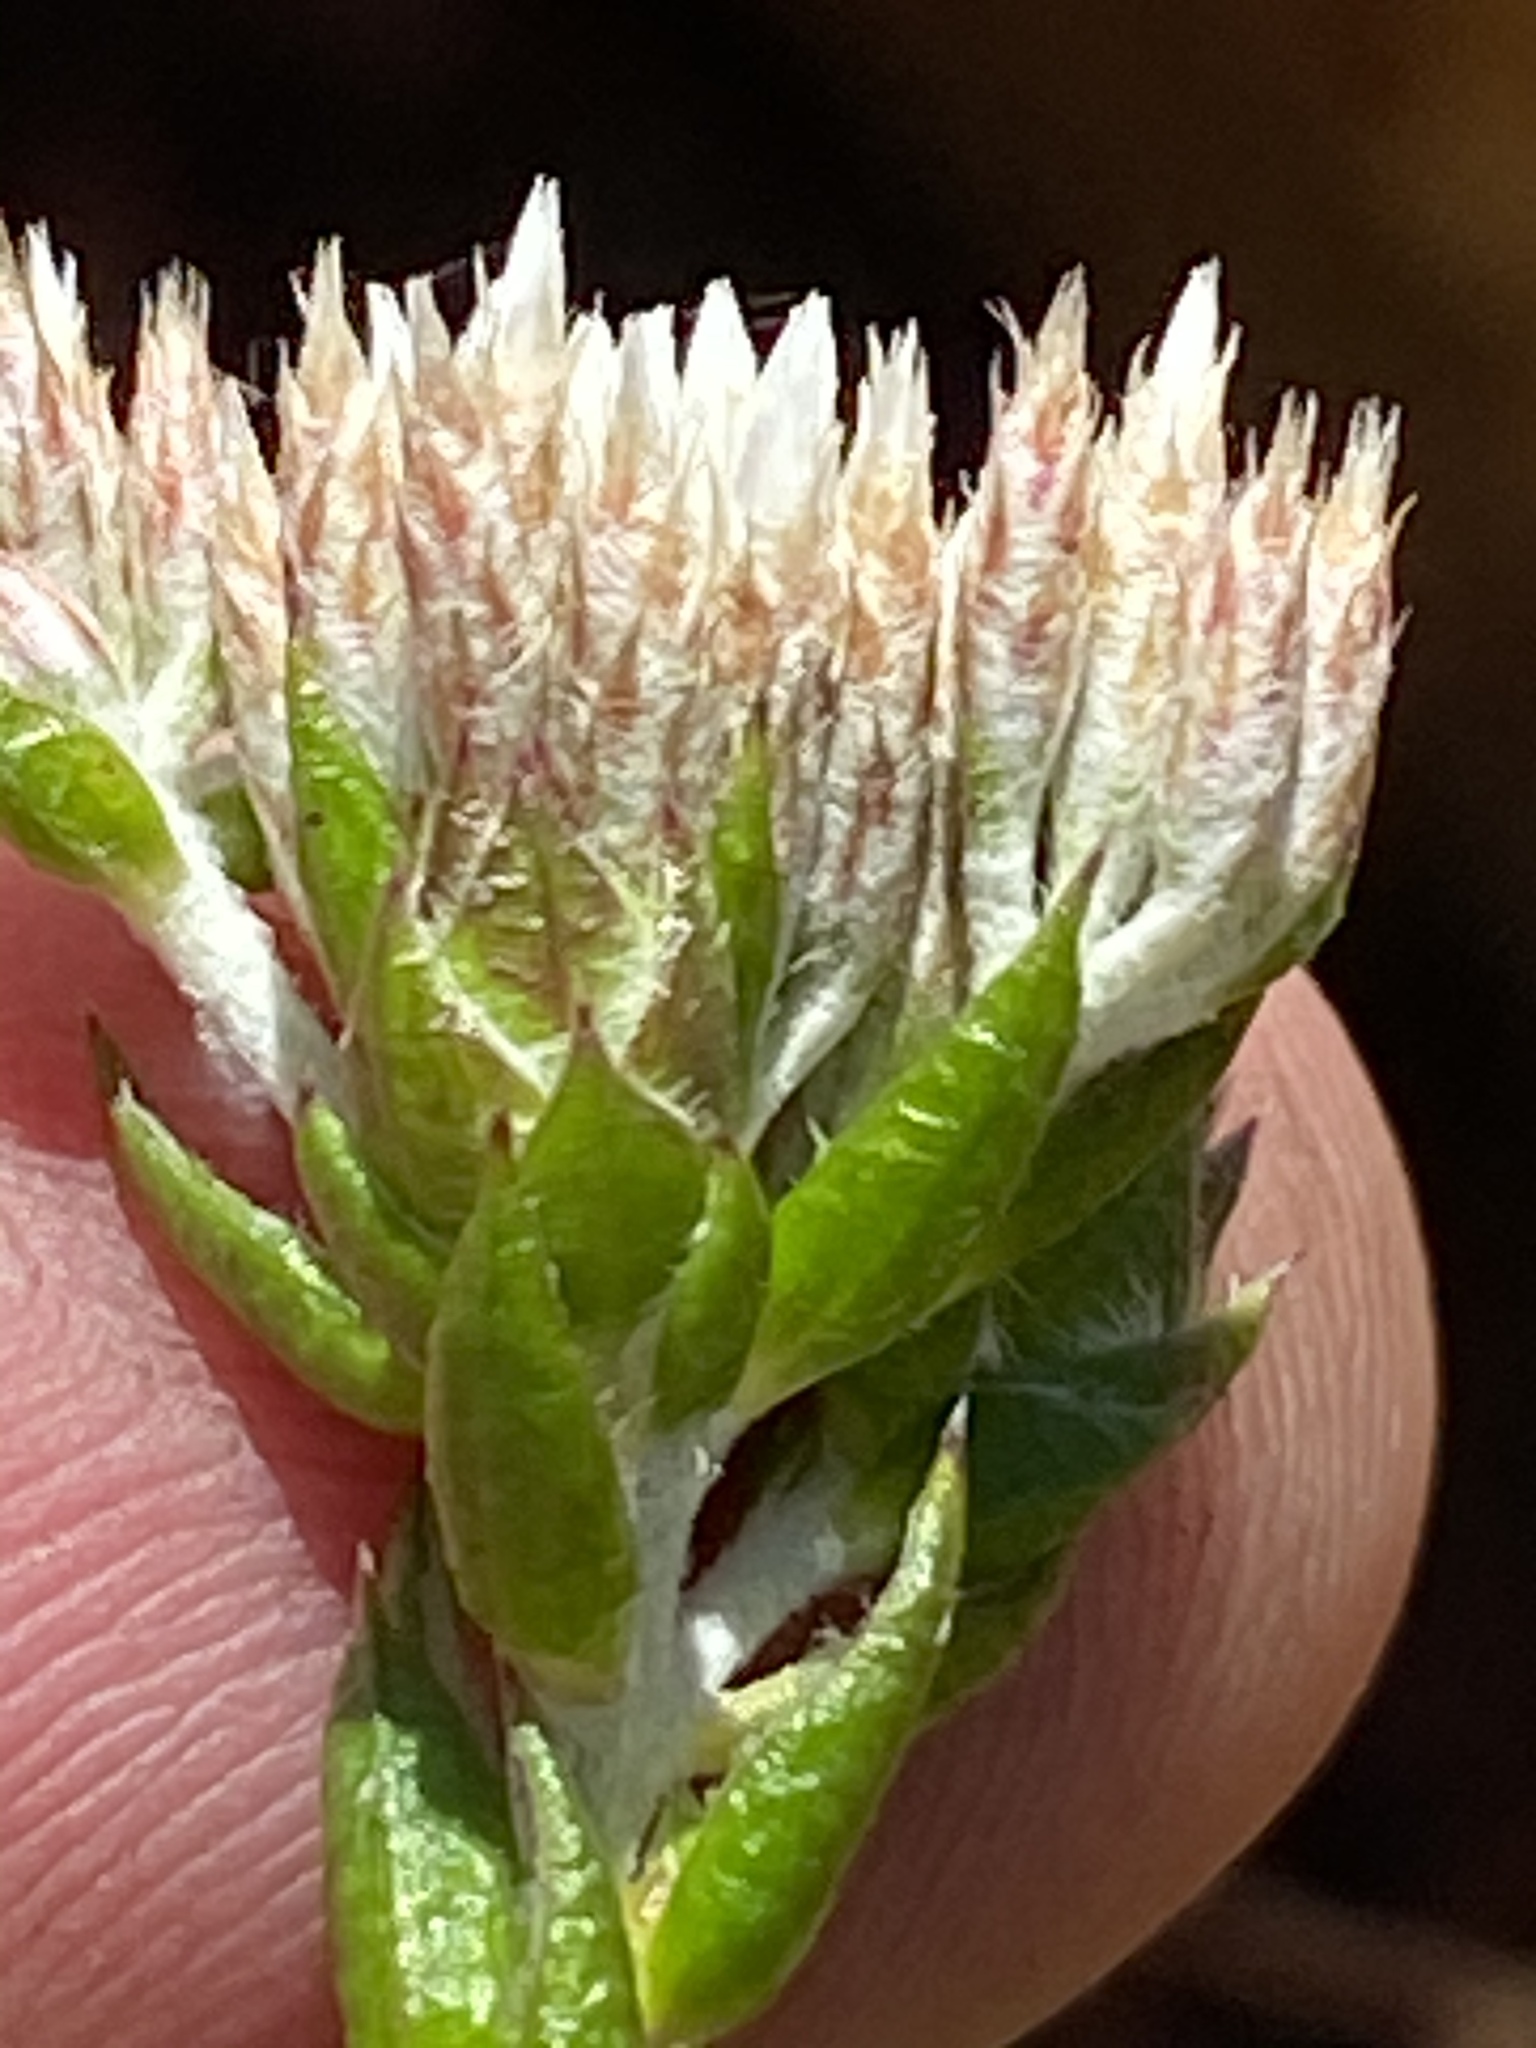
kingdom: Plantae
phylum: Tracheophyta
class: Magnoliopsida
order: Asterales
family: Asteraceae
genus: Metalasia
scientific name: Metalasia pungens
